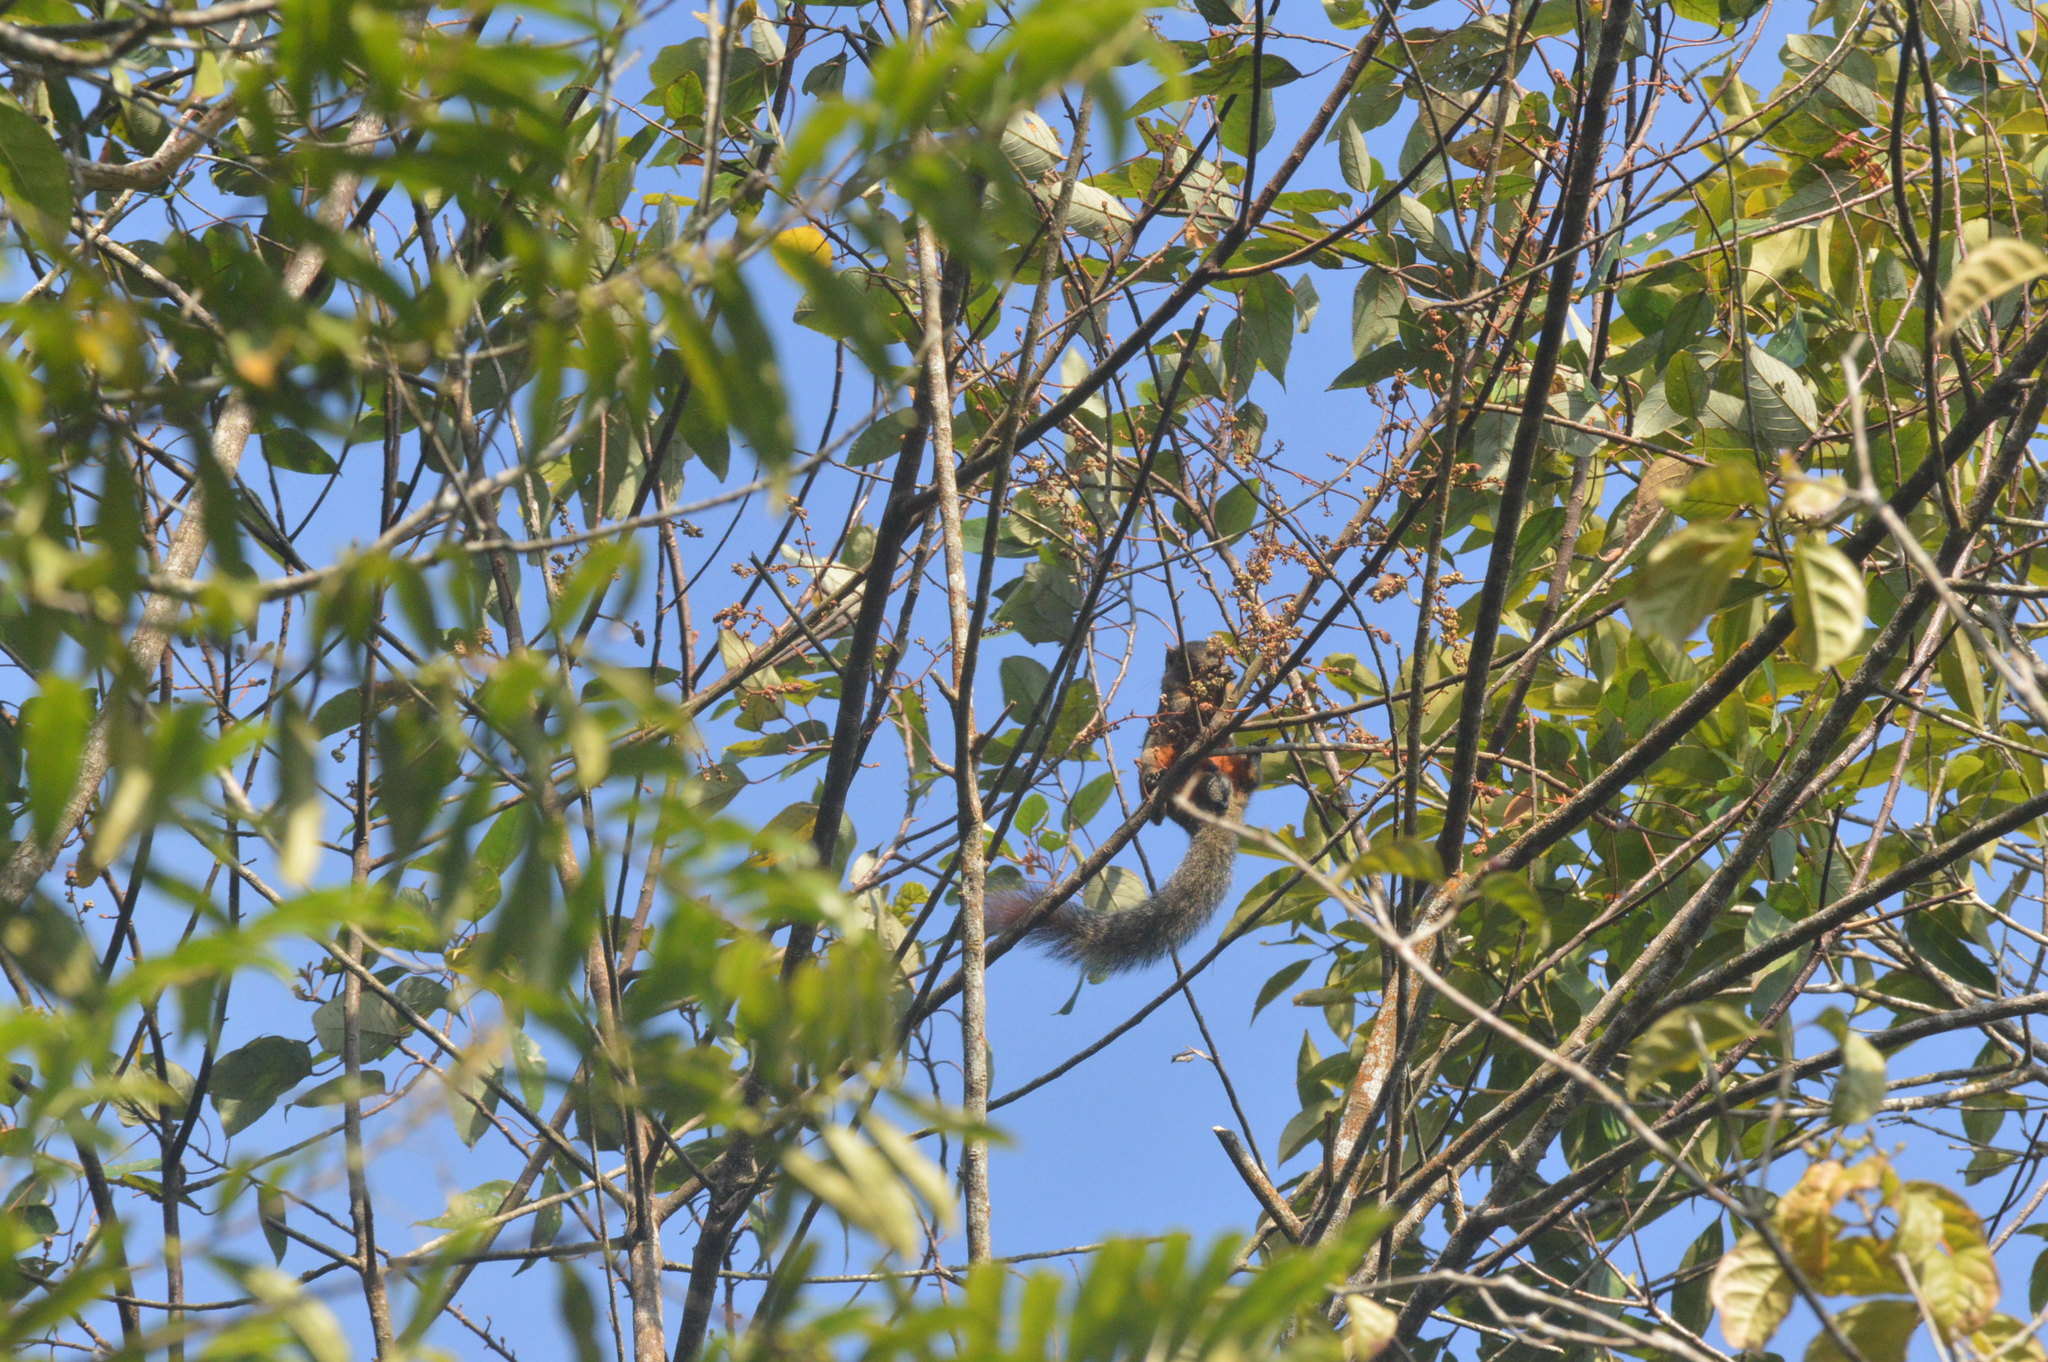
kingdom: Animalia
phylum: Chordata
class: Mammalia
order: Rodentia
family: Sciuridae
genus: Callosciurus
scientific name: Callosciurus notatus
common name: Plantain squirrel
